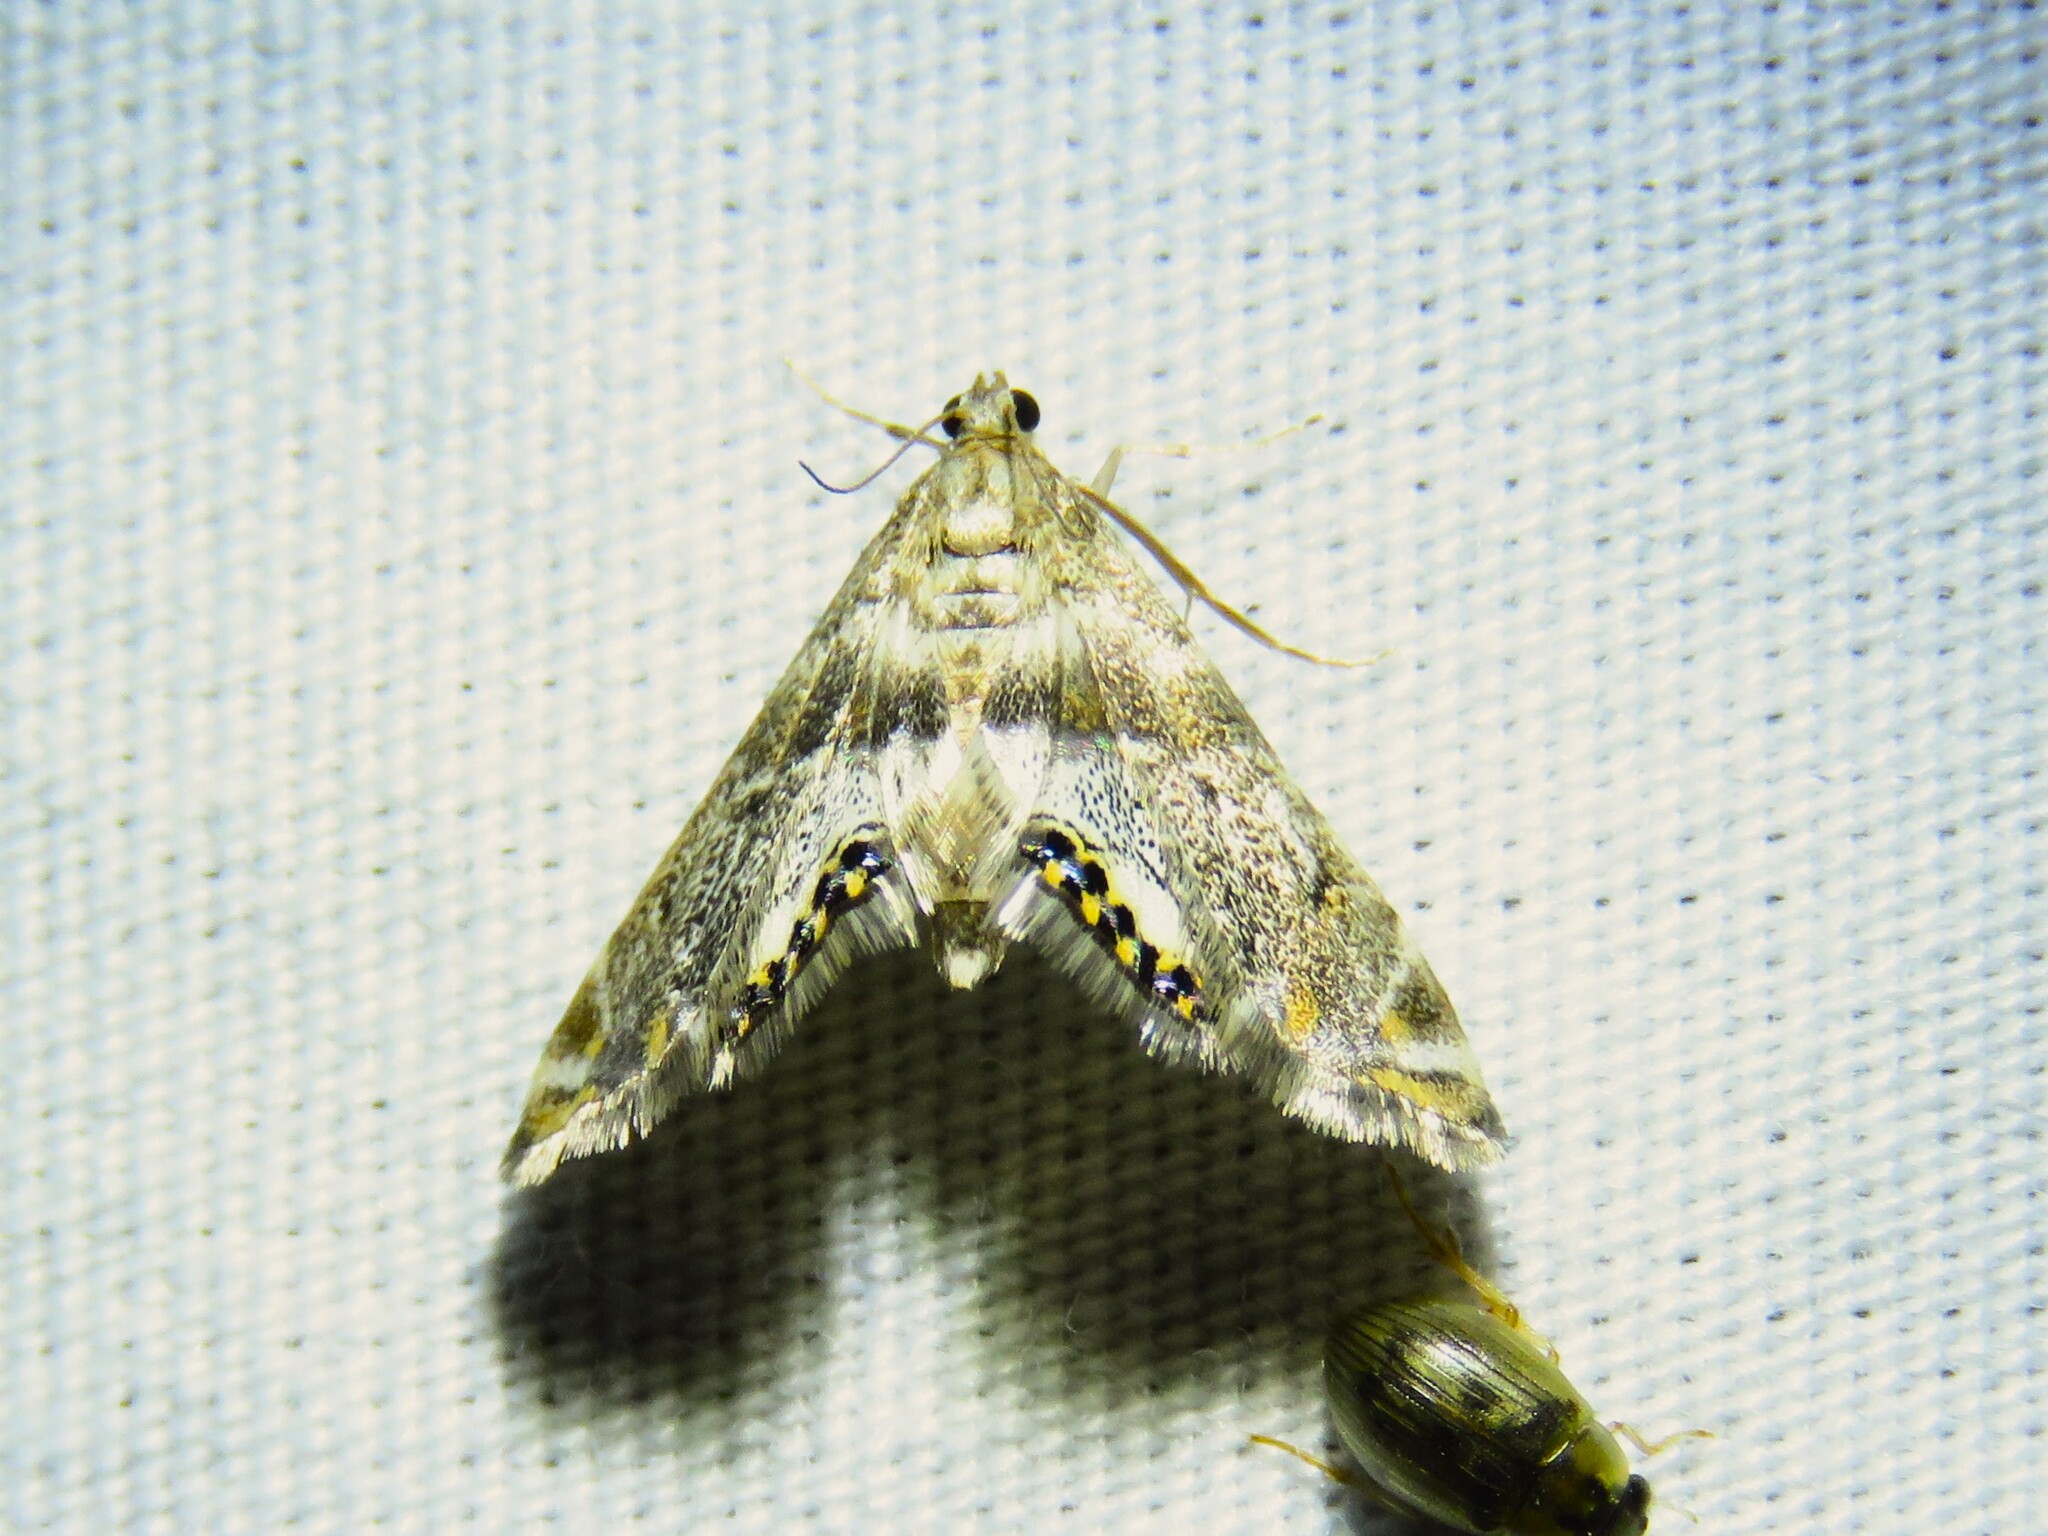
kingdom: Animalia
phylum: Arthropoda
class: Insecta
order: Lepidoptera
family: Crambidae
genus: Petrophila
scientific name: Petrophila fulicalis
